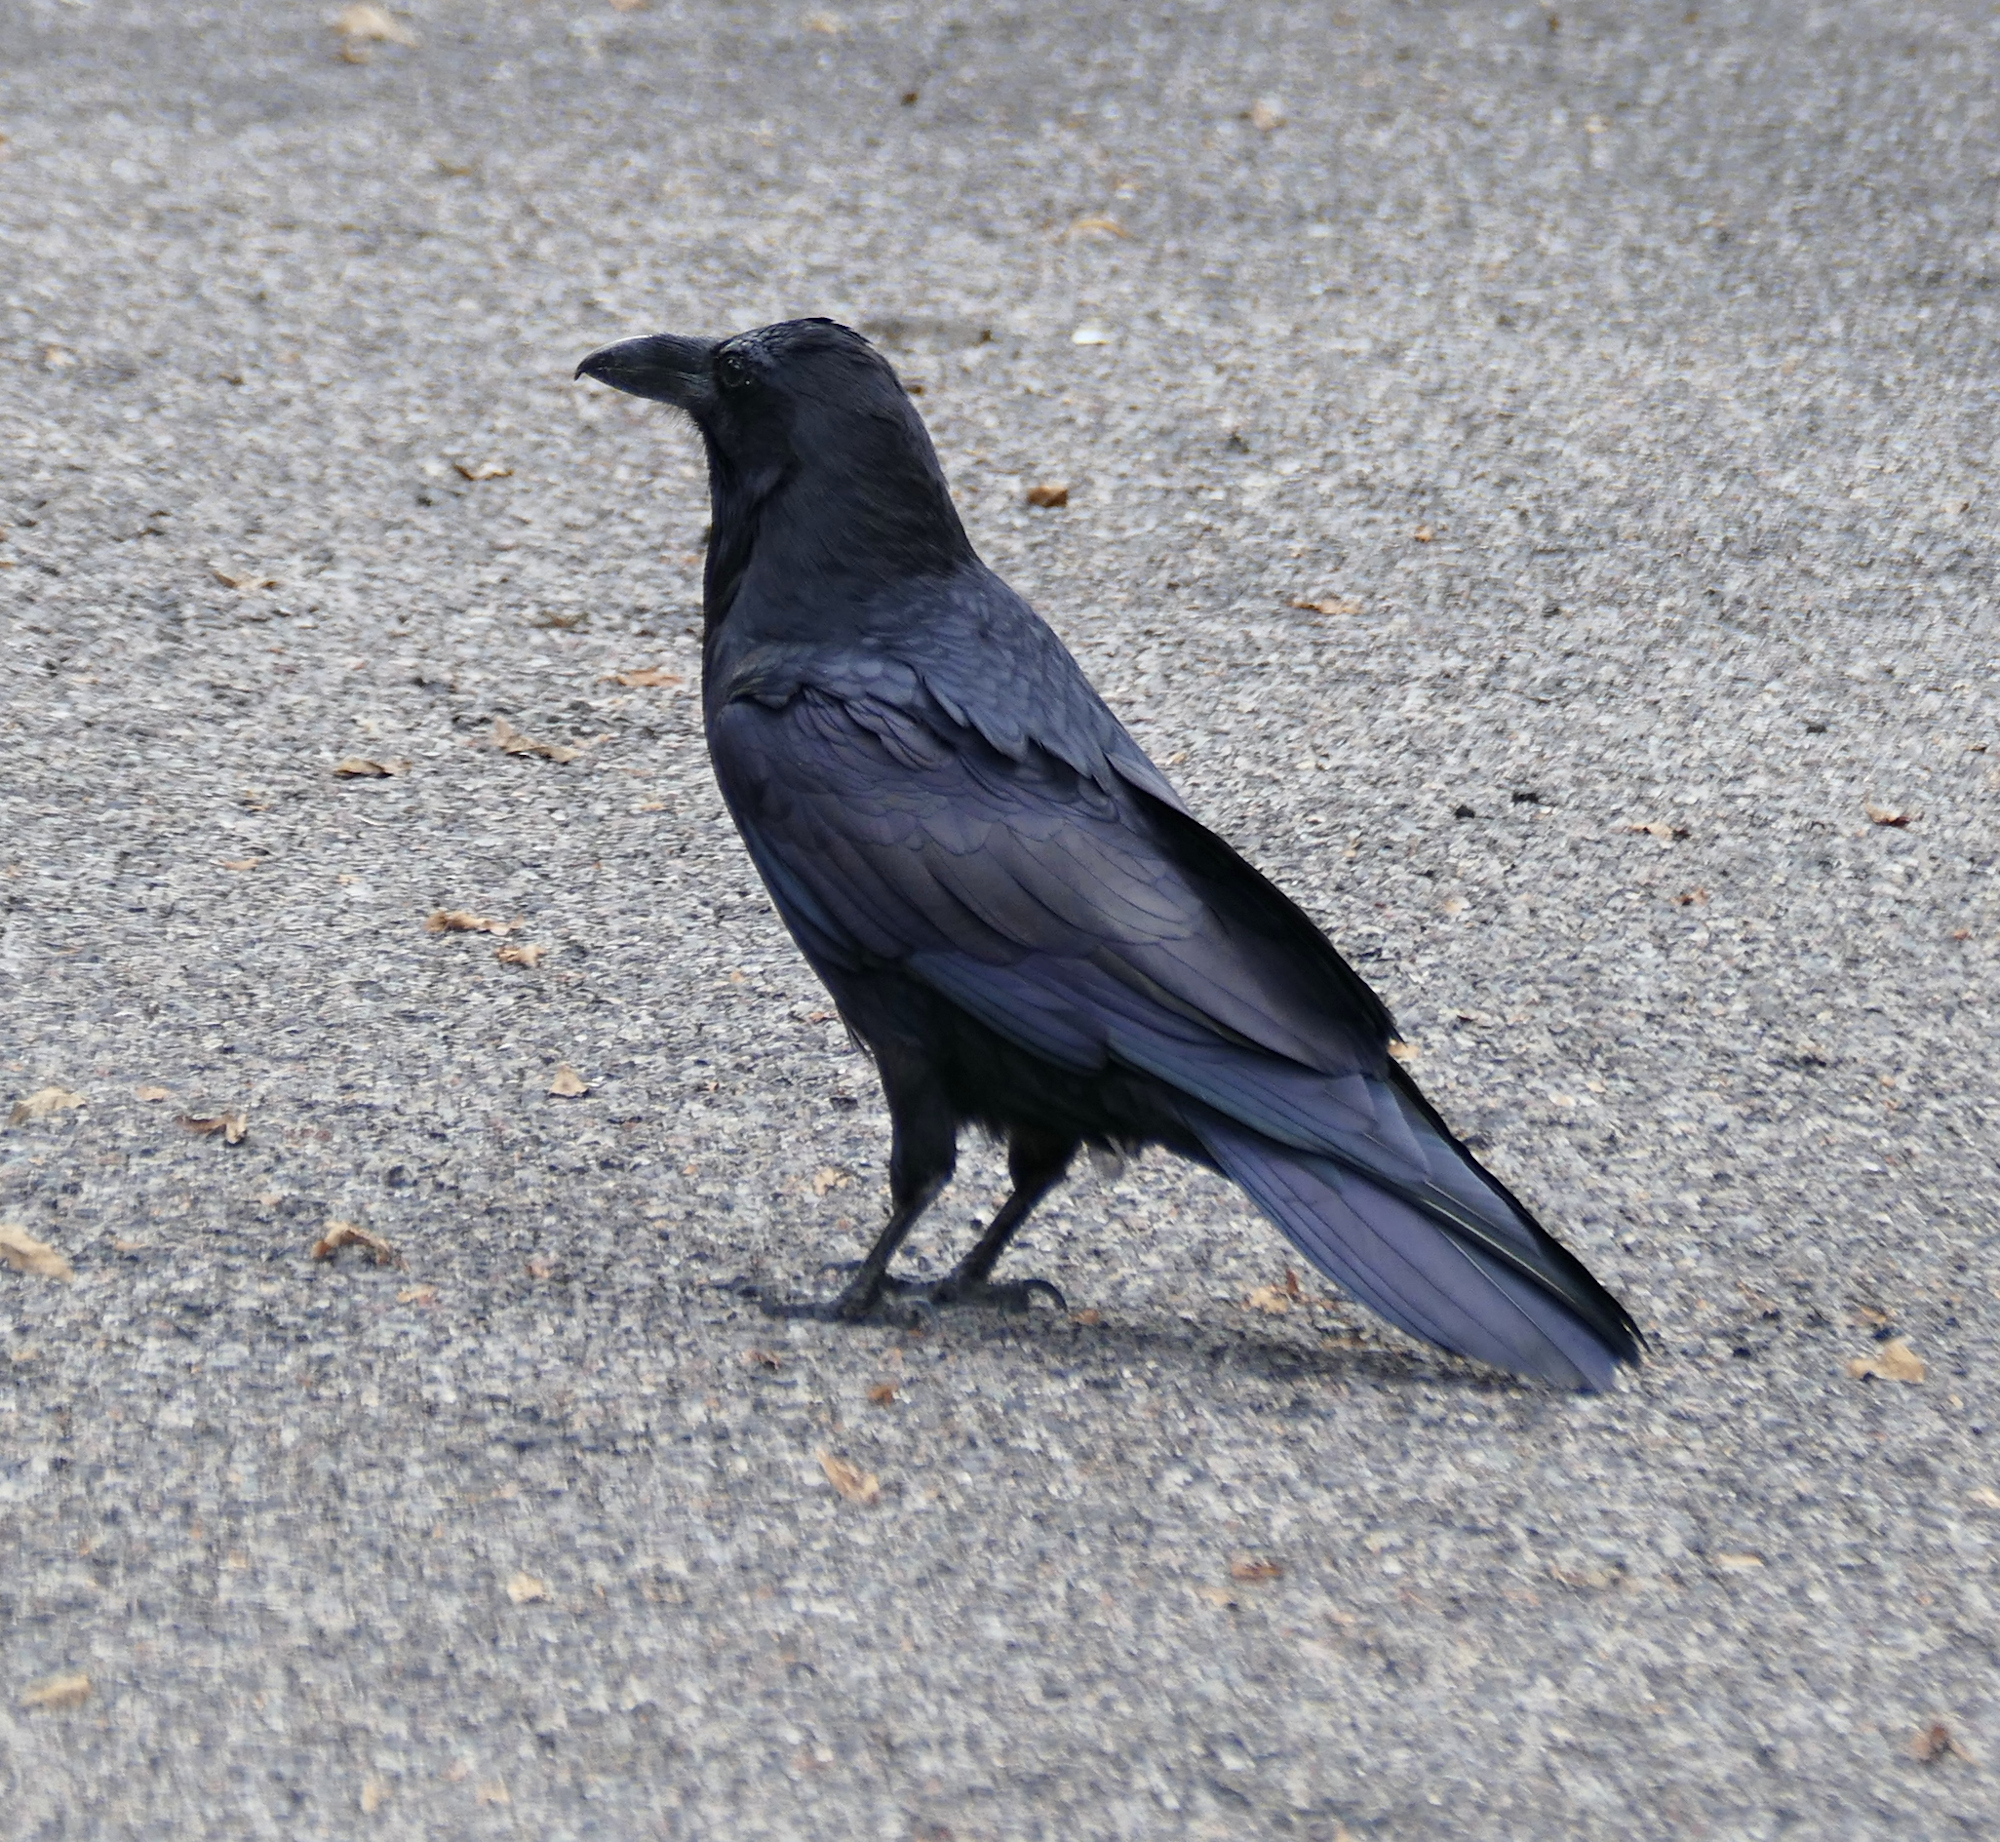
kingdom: Animalia
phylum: Chordata
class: Aves
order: Passeriformes
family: Corvidae
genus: Corvus
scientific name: Corvus corax
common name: Common raven
